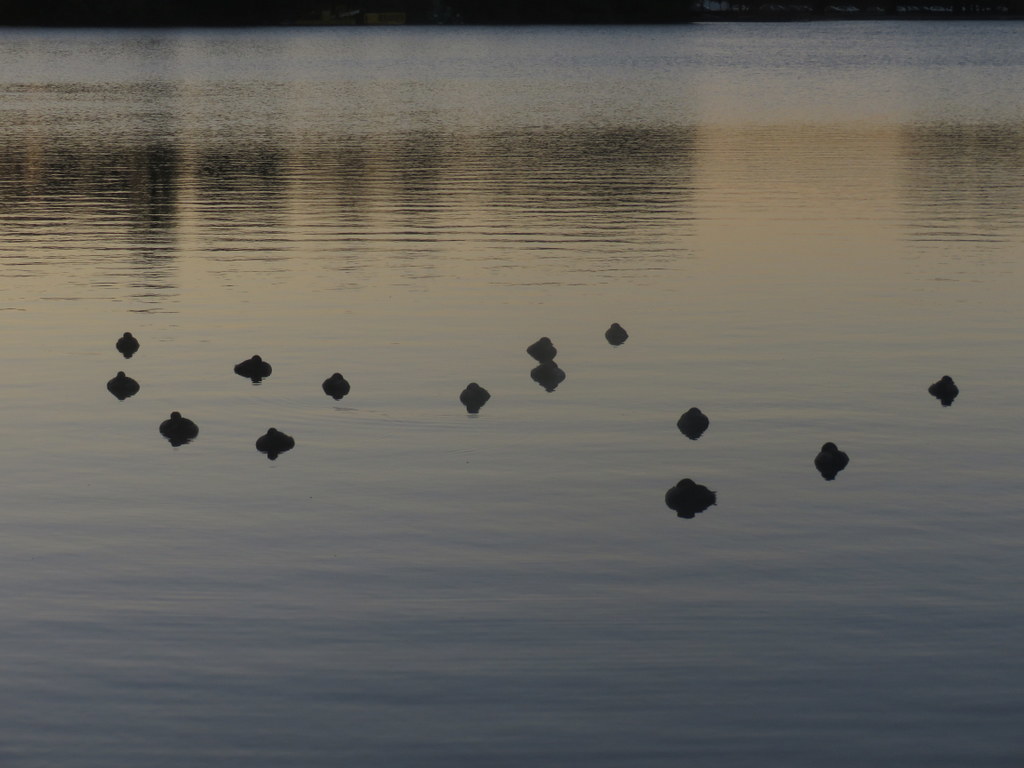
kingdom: Animalia
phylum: Chordata
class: Aves
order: Podicipediformes
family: Podicipedidae
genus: Podilymbus
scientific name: Podilymbus podiceps
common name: Pied-billed grebe
